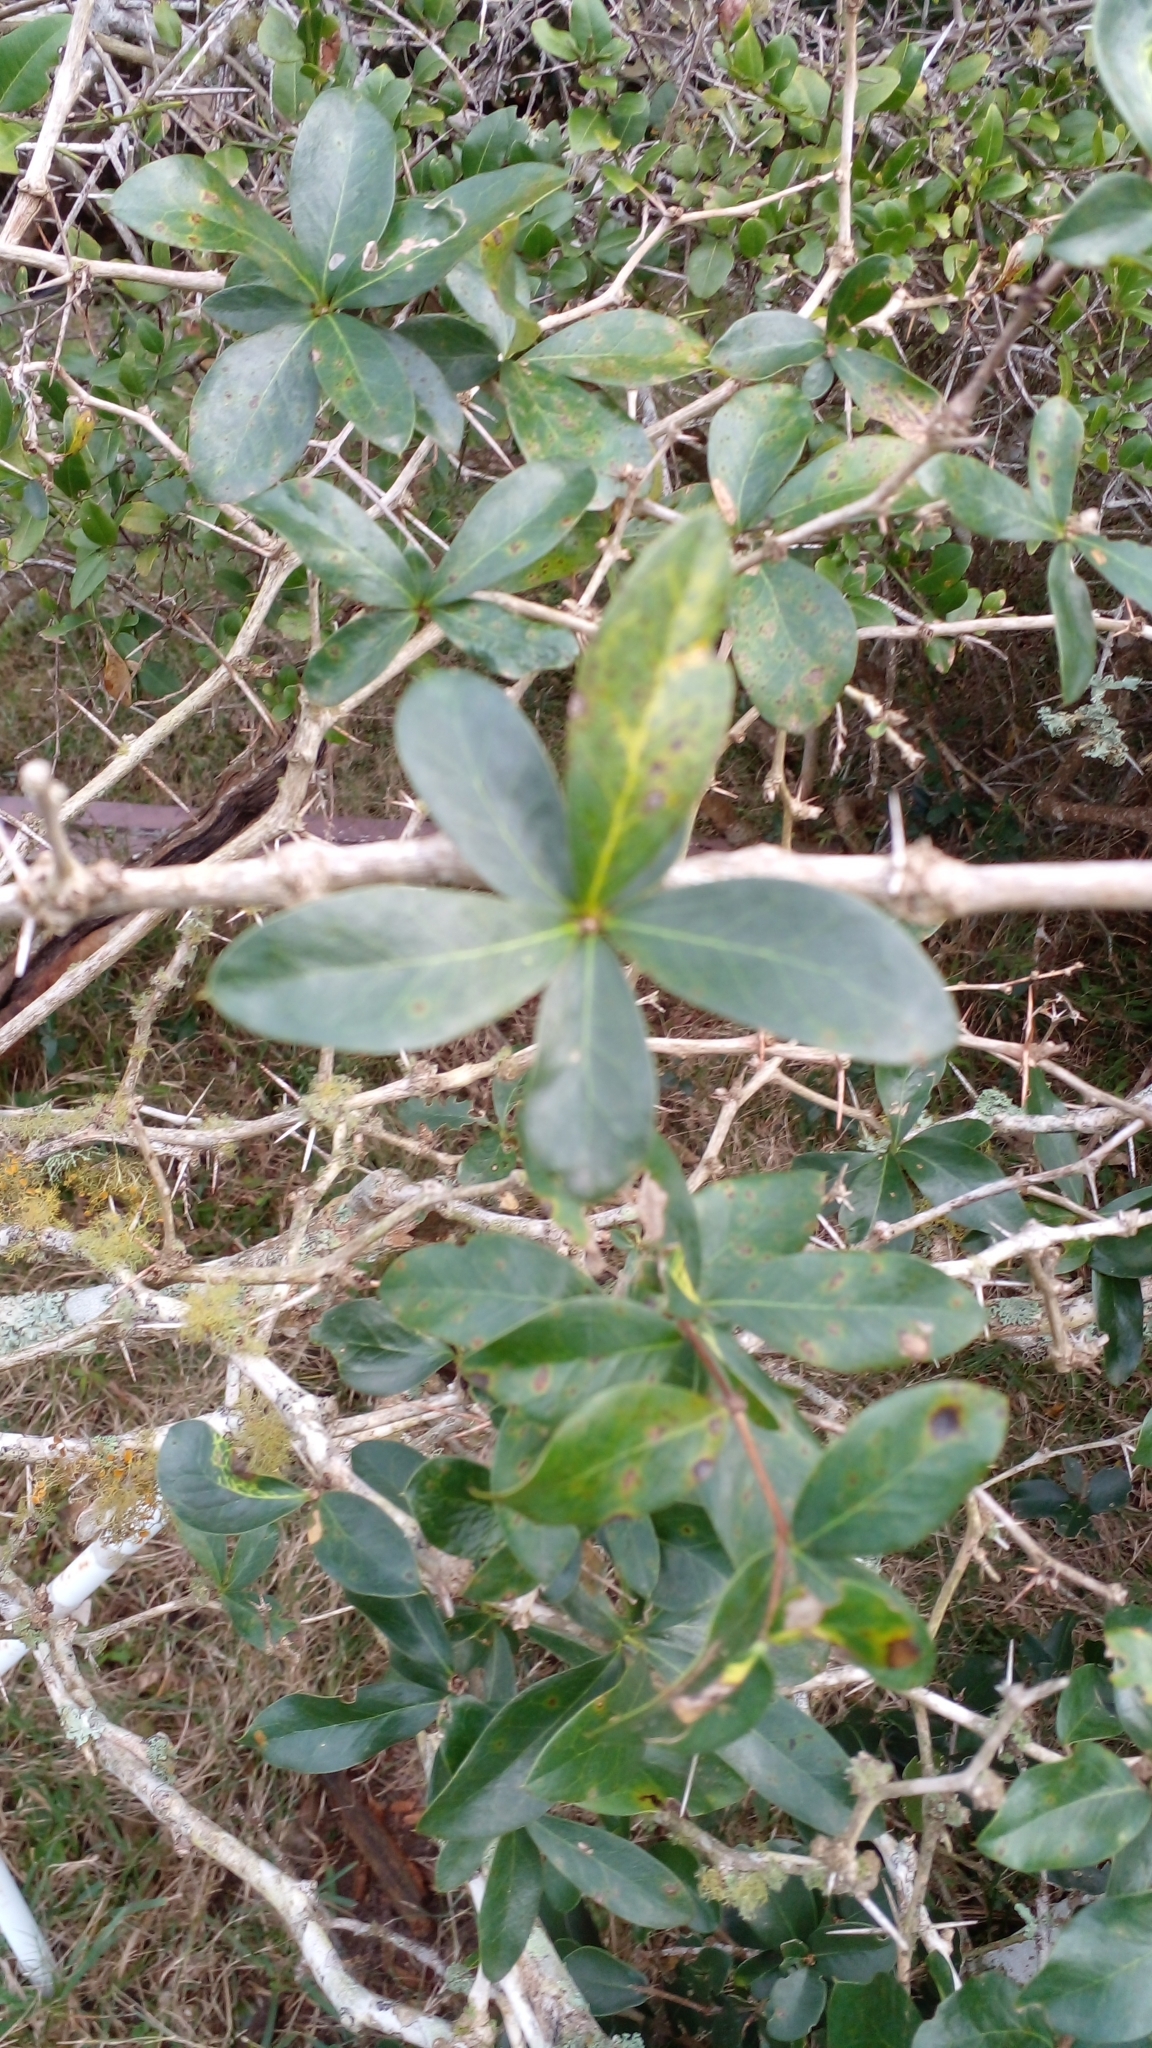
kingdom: Plantae
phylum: Tracheophyta
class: Magnoliopsida
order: Ranunculales
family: Berberidaceae
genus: Berberis
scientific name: Berberis laurina
